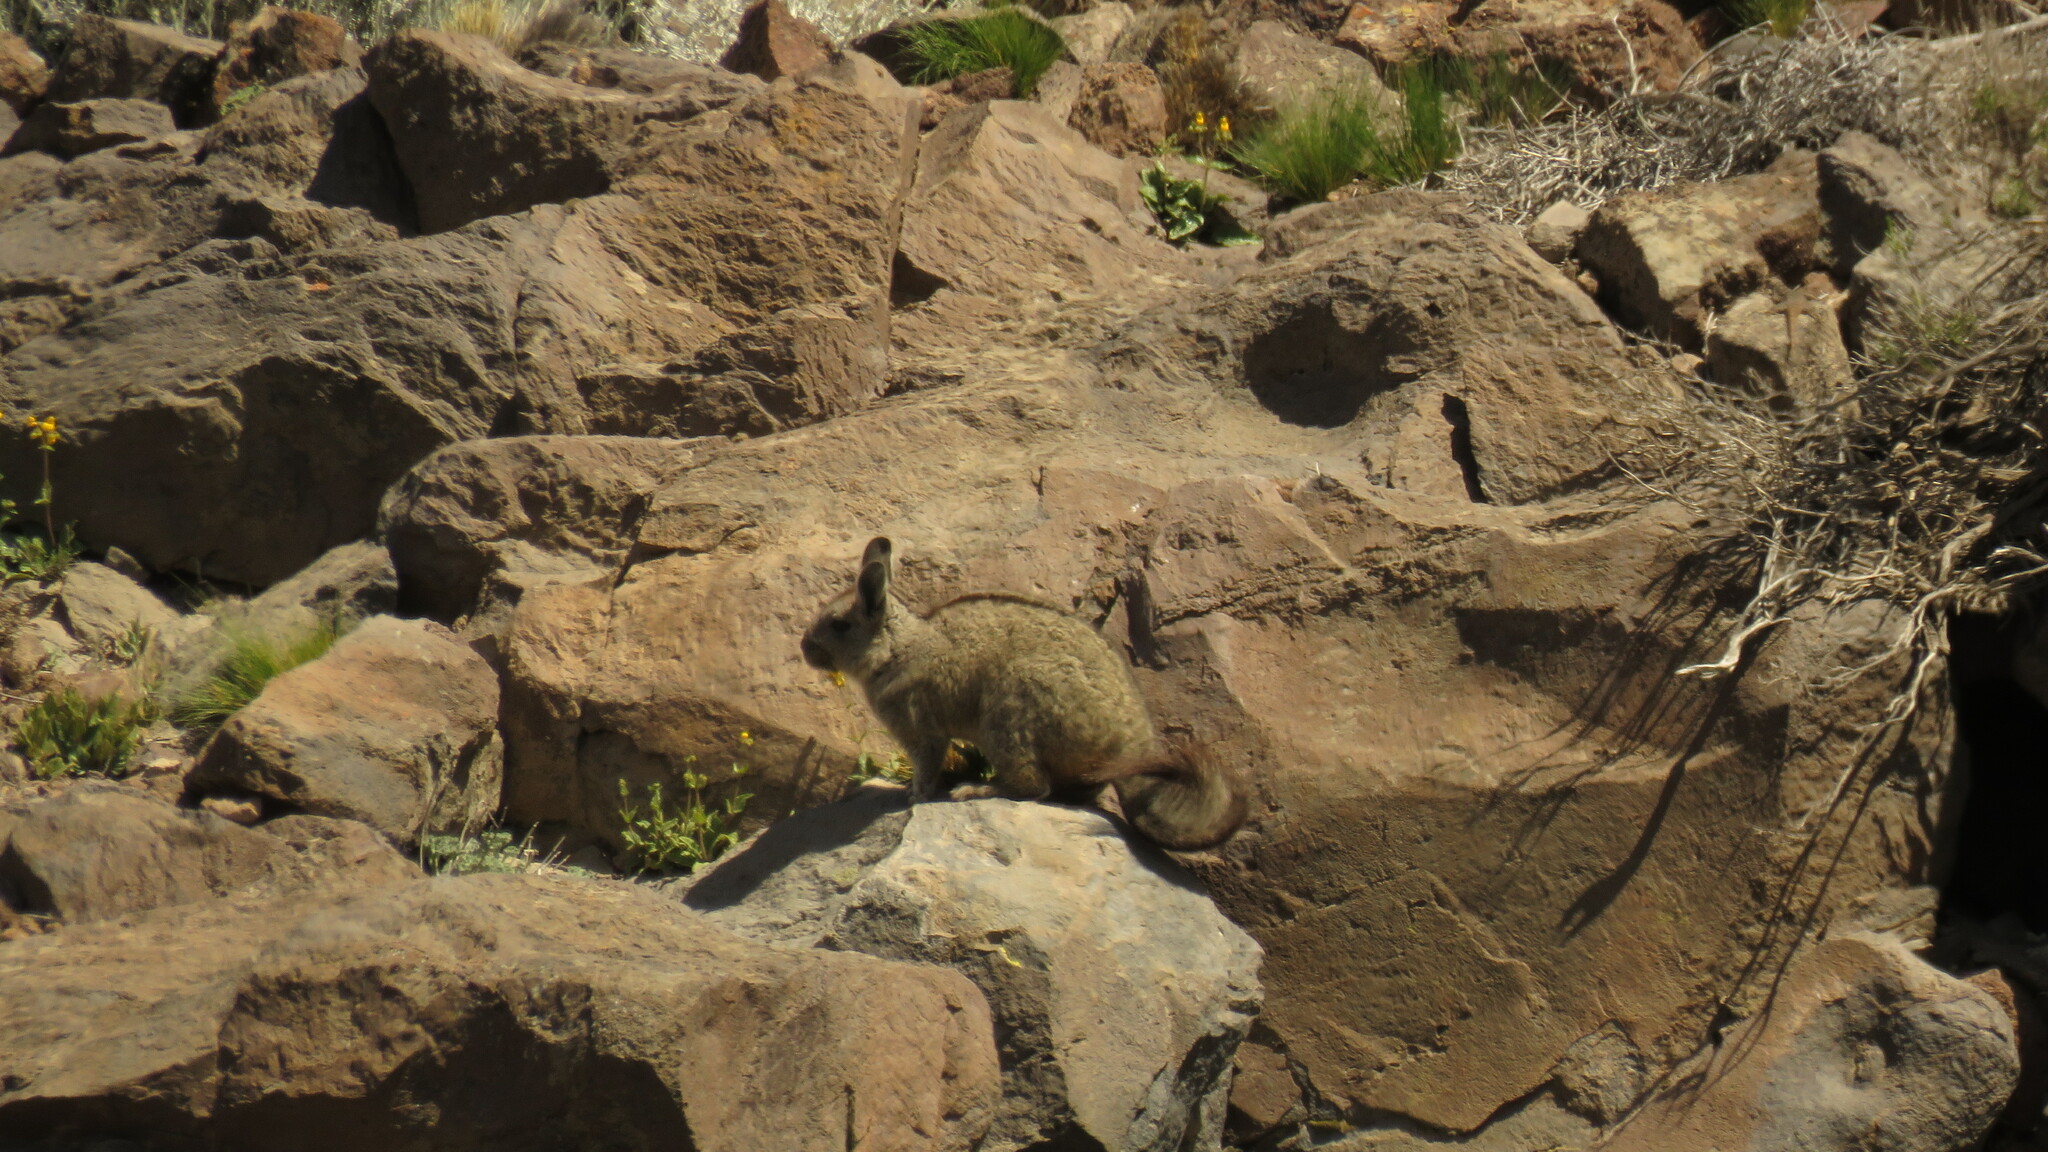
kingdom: Animalia
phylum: Chordata
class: Mammalia
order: Rodentia
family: Chinchillidae
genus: Lagidium
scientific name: Lagidium viscacia
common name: Southern viscacha
